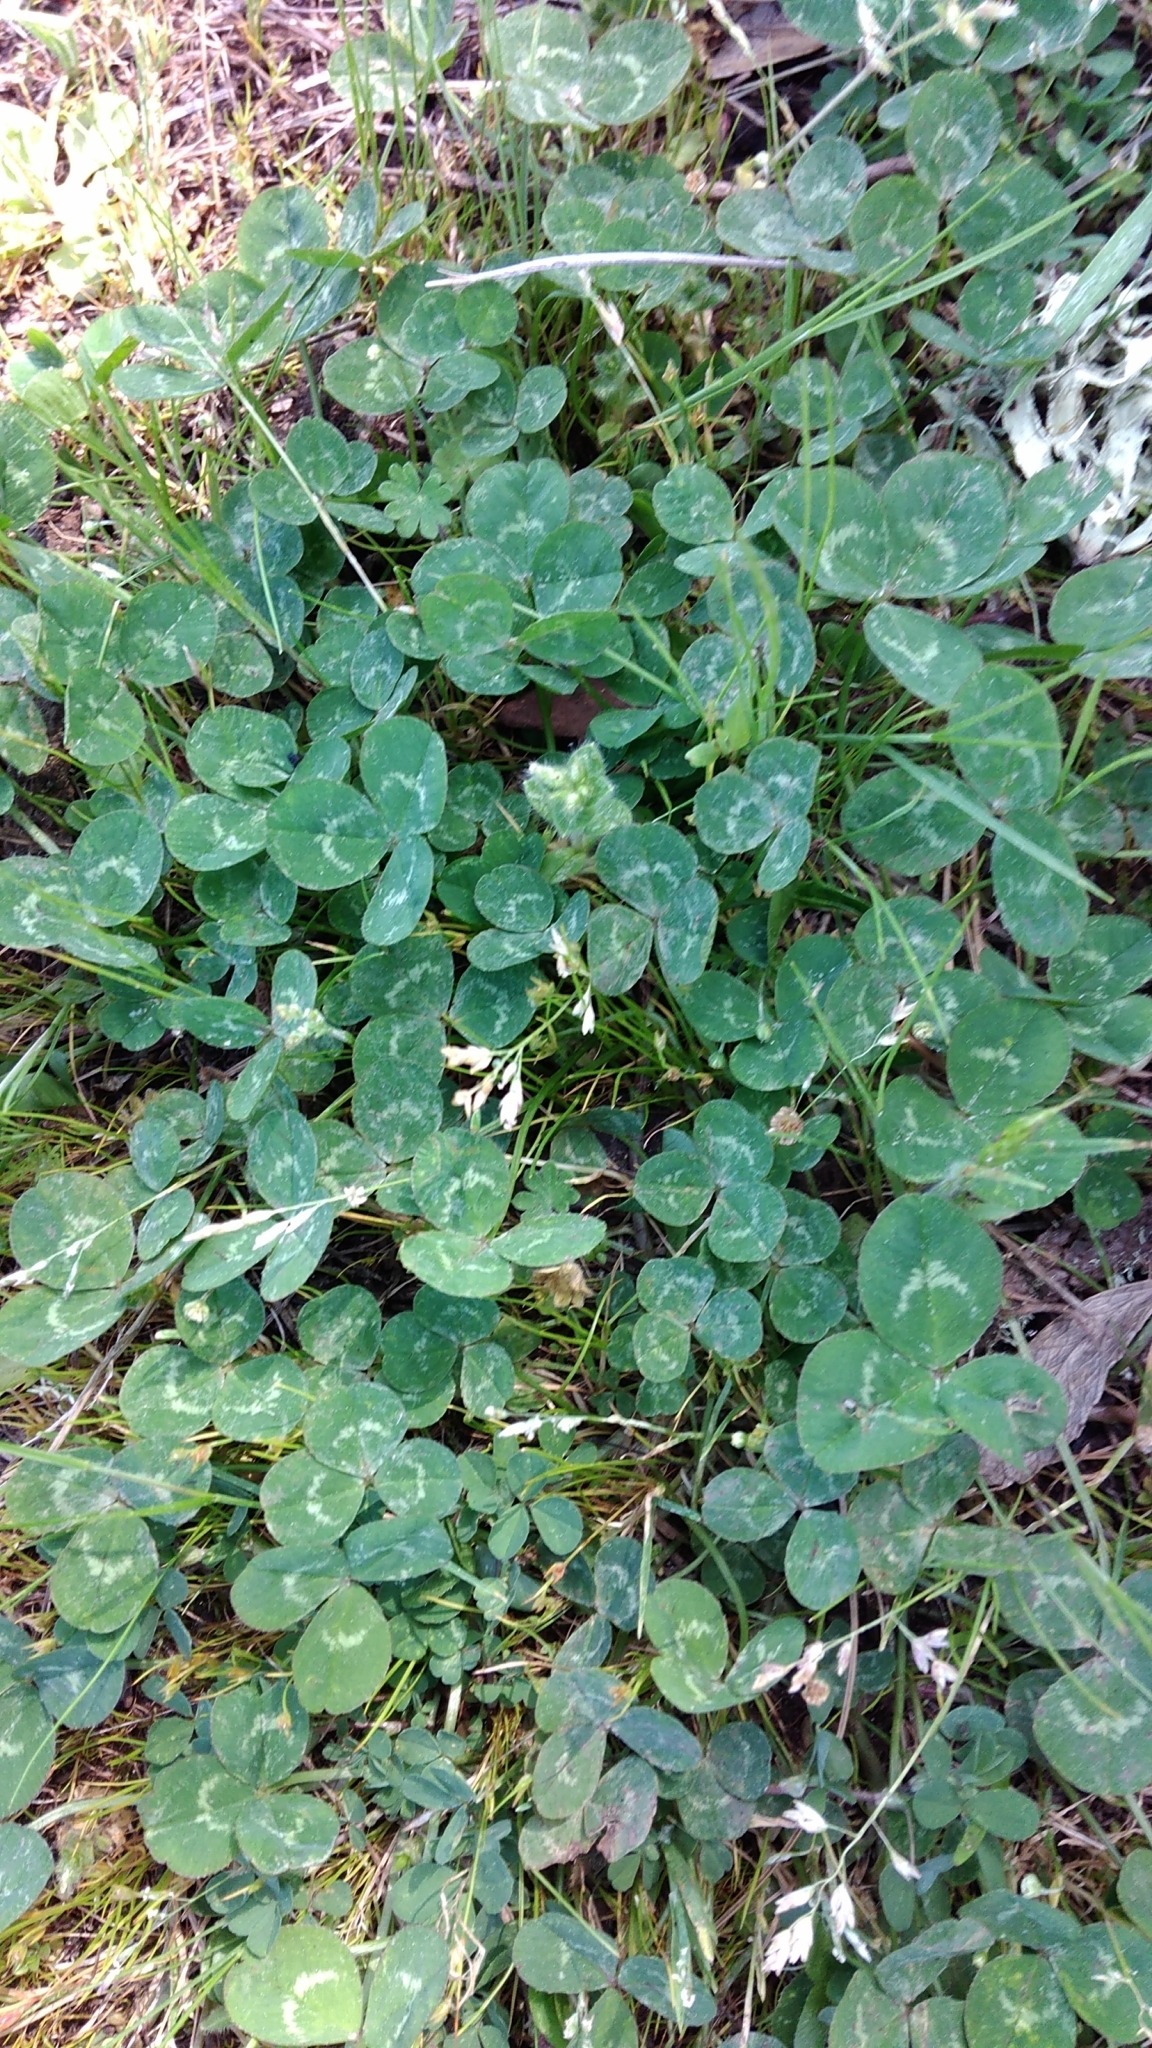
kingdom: Plantae
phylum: Tracheophyta
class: Magnoliopsida
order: Fabales
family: Fabaceae
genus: Trifolium
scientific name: Trifolium repens
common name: White clover
